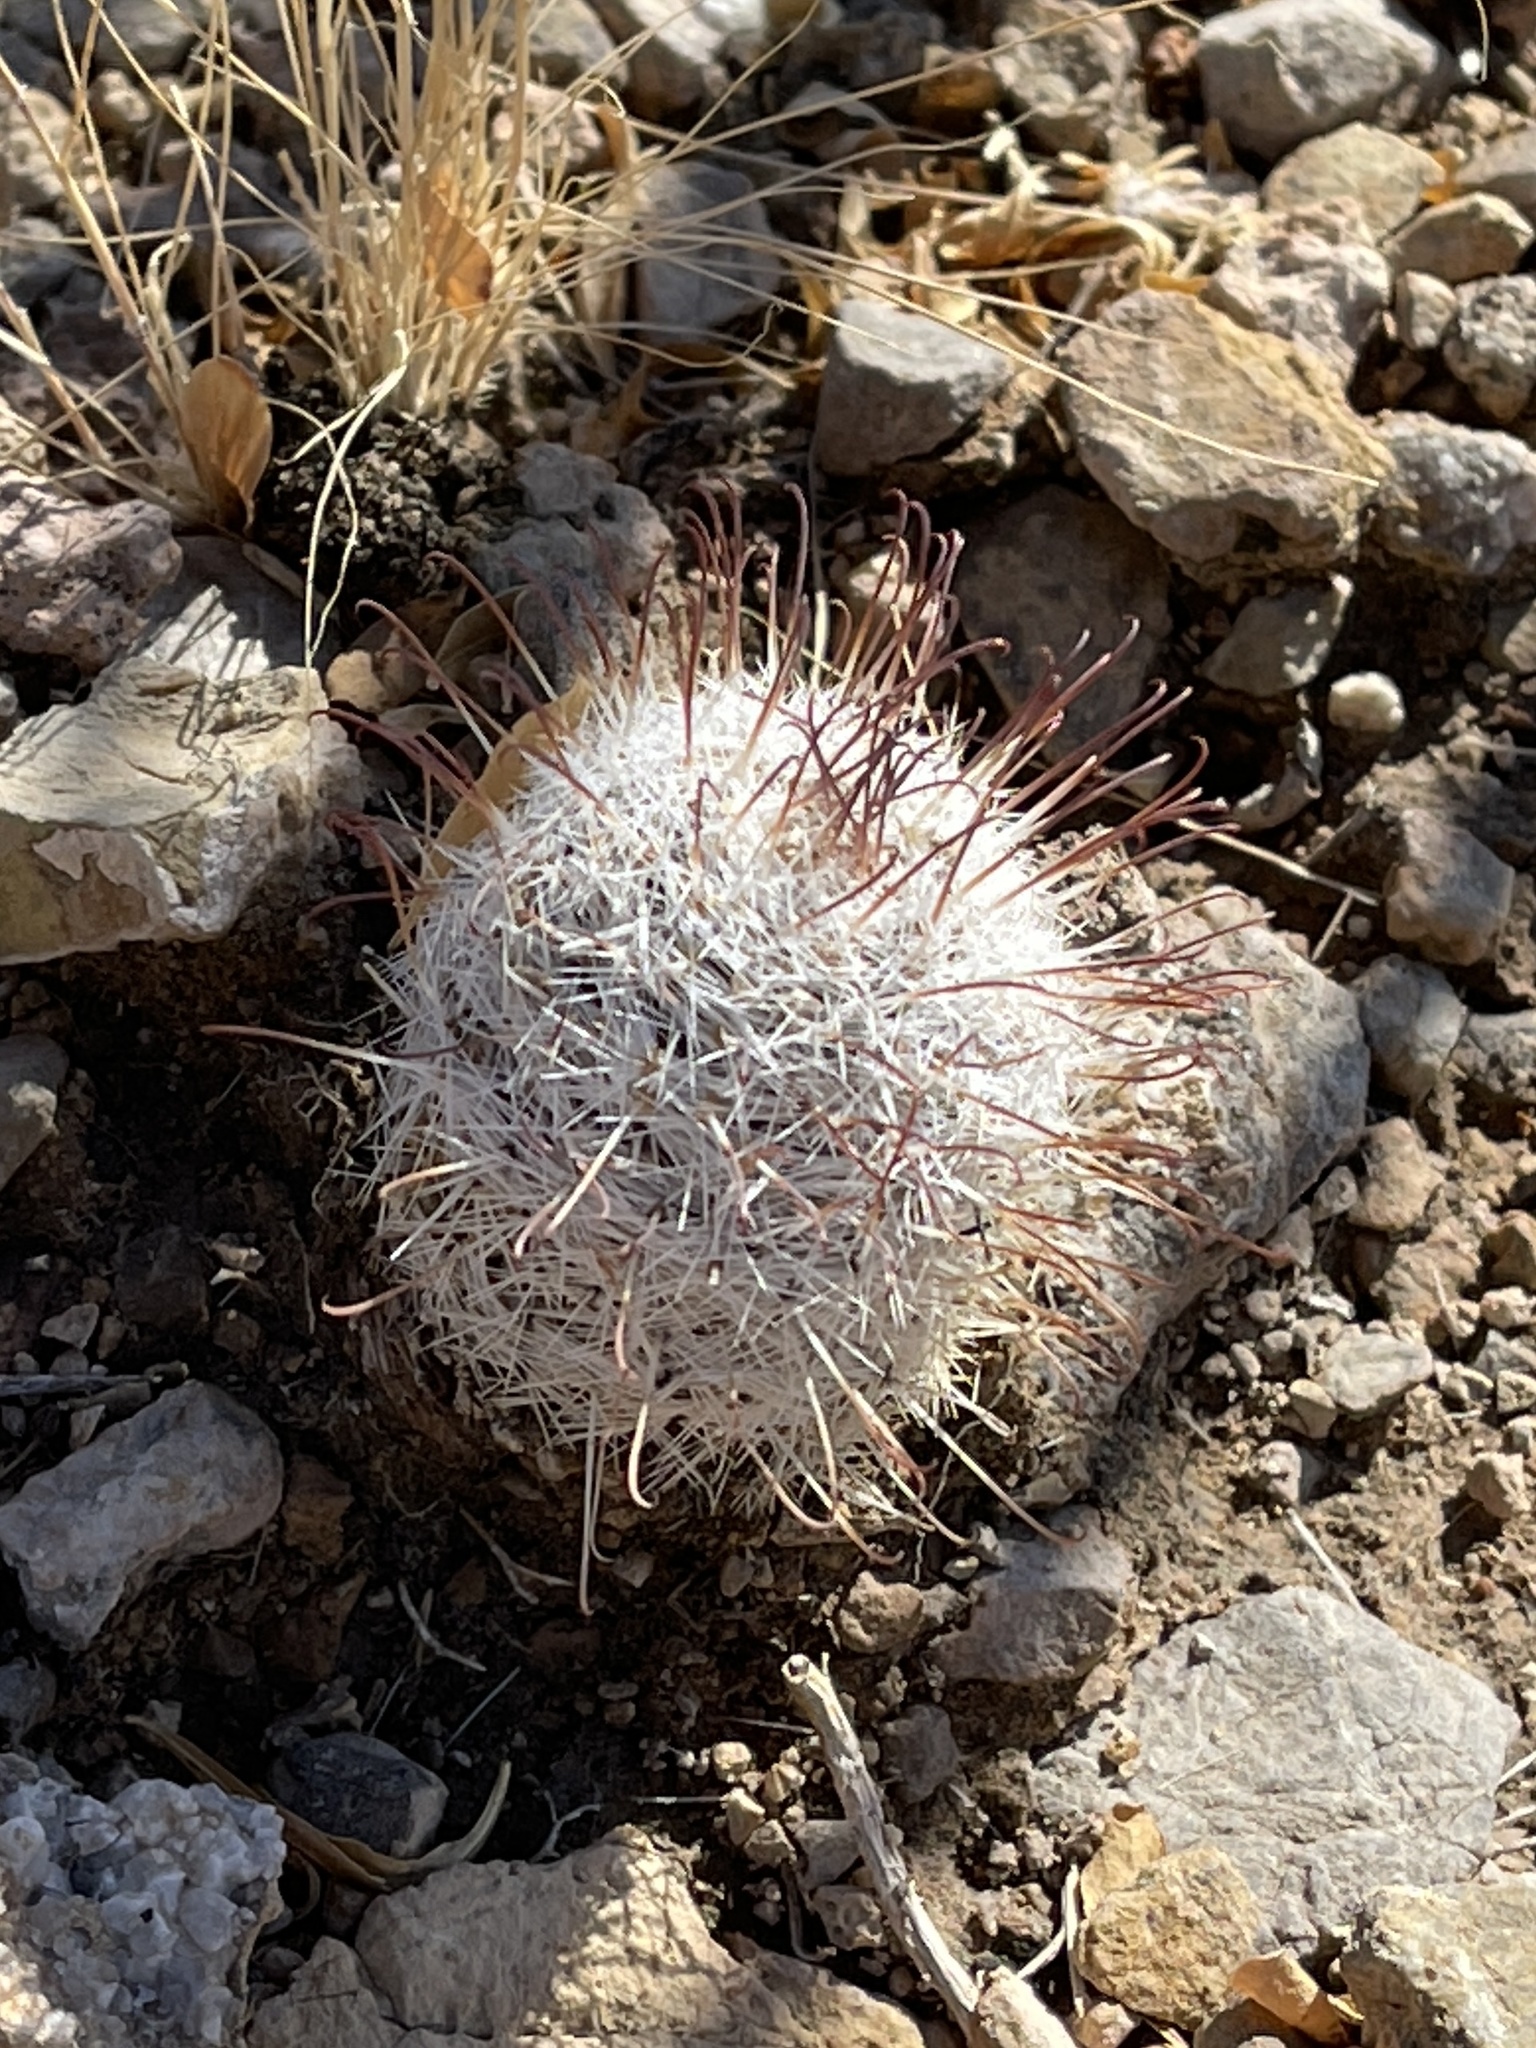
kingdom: Plantae
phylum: Tracheophyta
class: Magnoliopsida
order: Caryophyllales
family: Cactaceae
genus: Cochemiea
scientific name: Cochemiea grahamii
